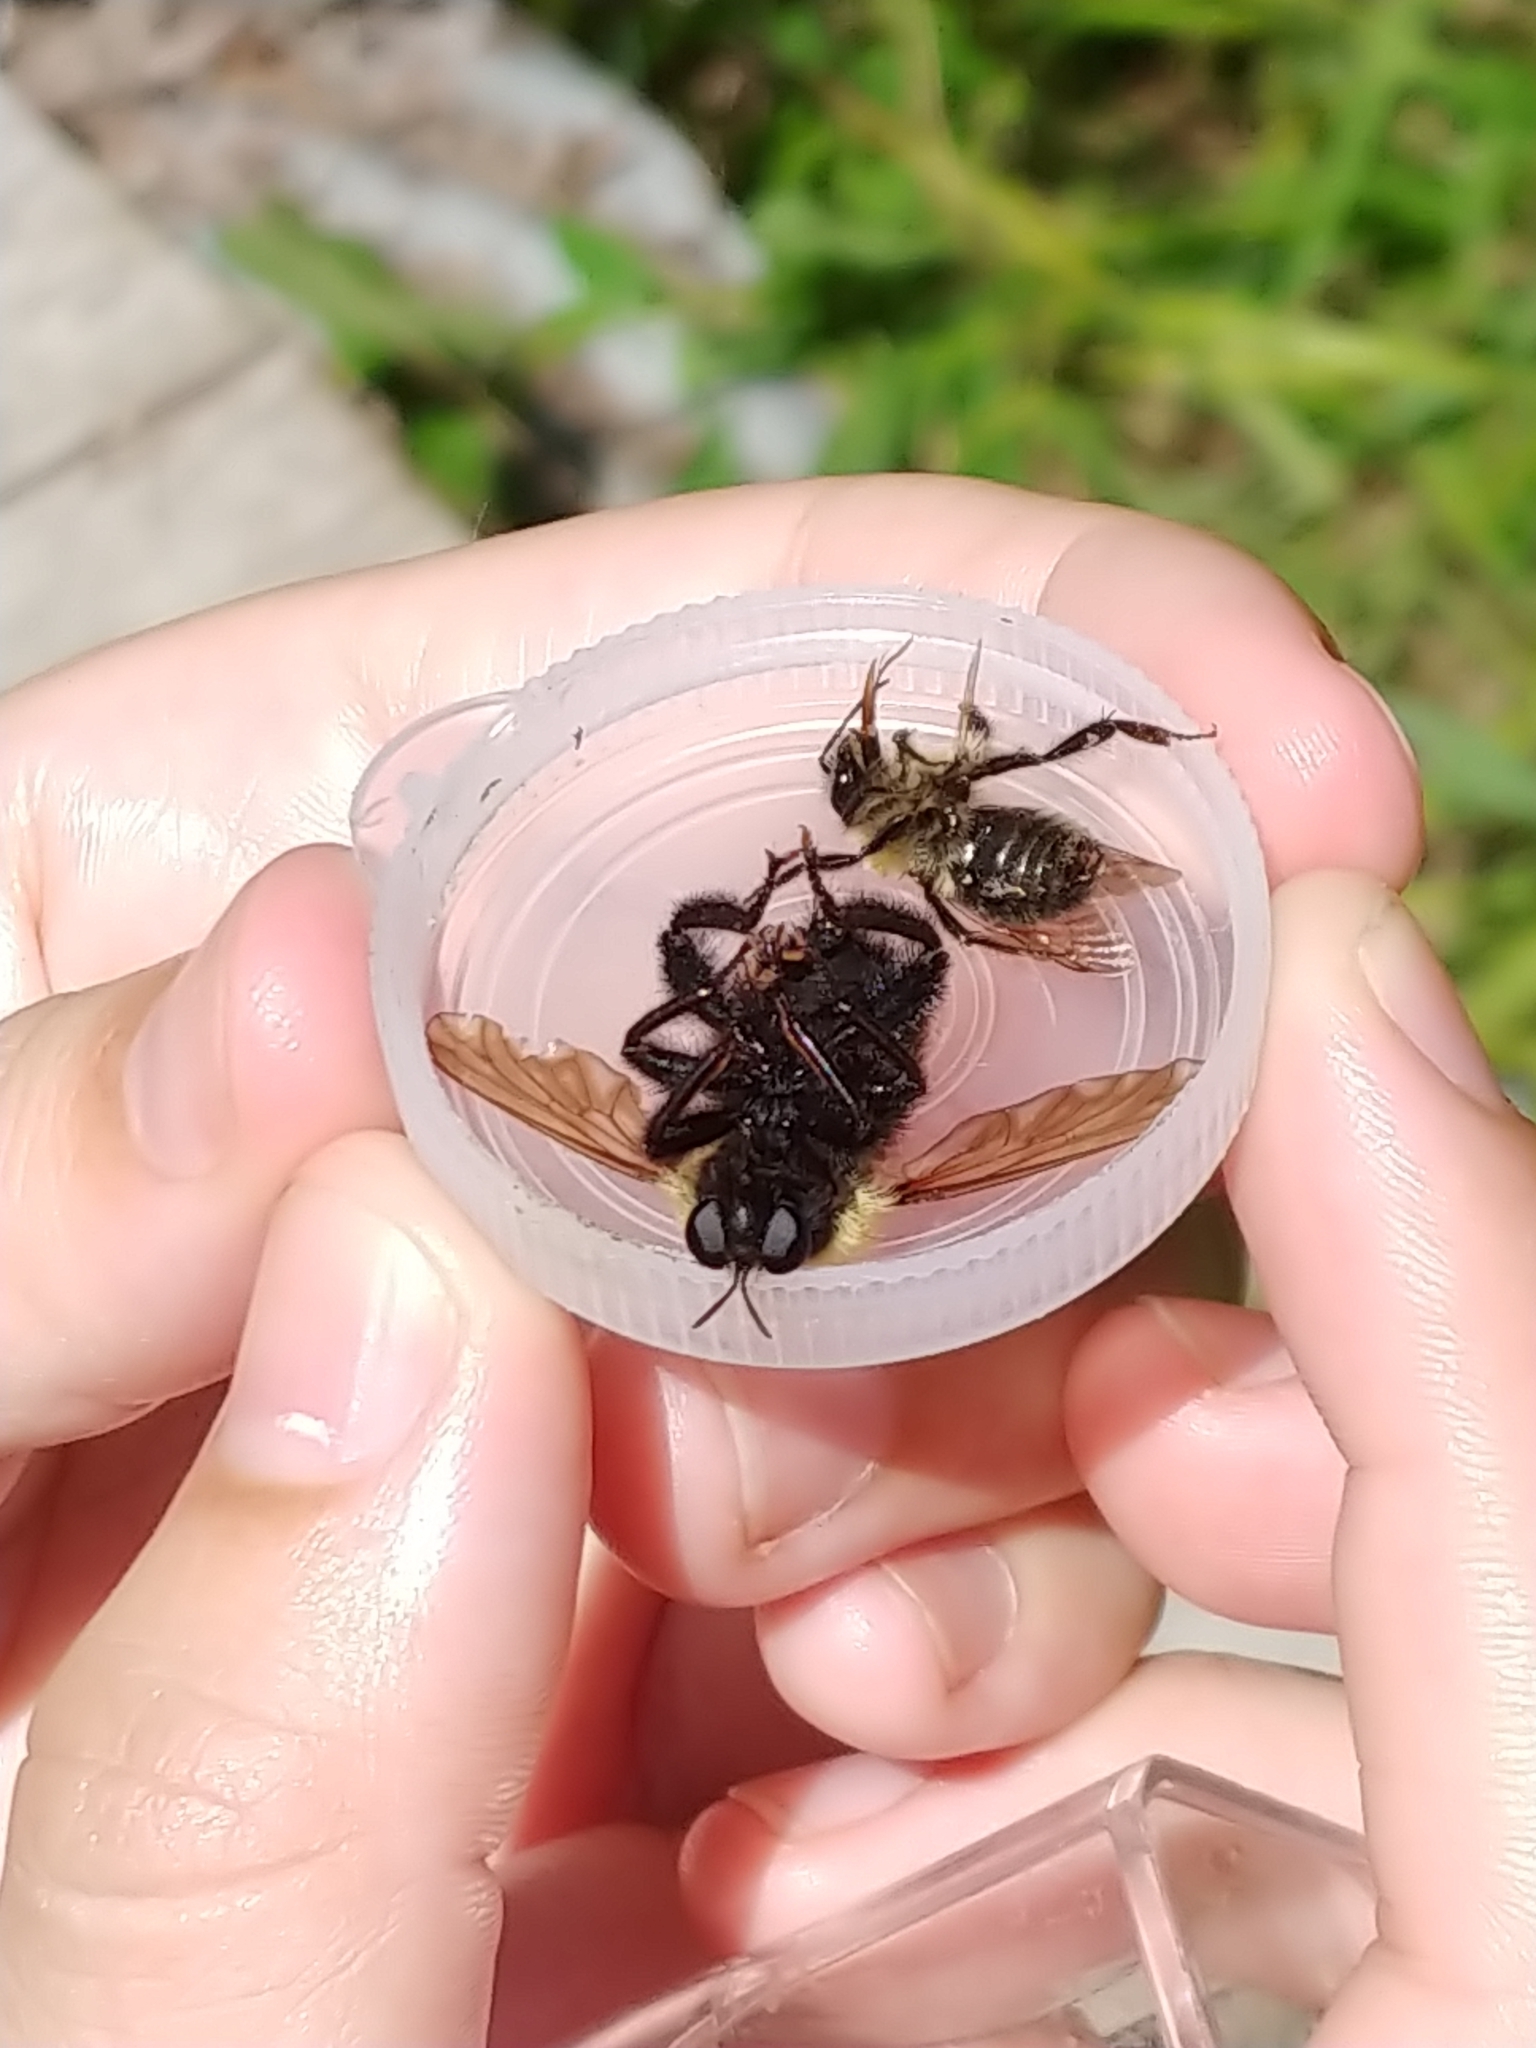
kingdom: Animalia
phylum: Arthropoda
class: Insecta
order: Hymenoptera
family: Apidae
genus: Bombus
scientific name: Bombus
